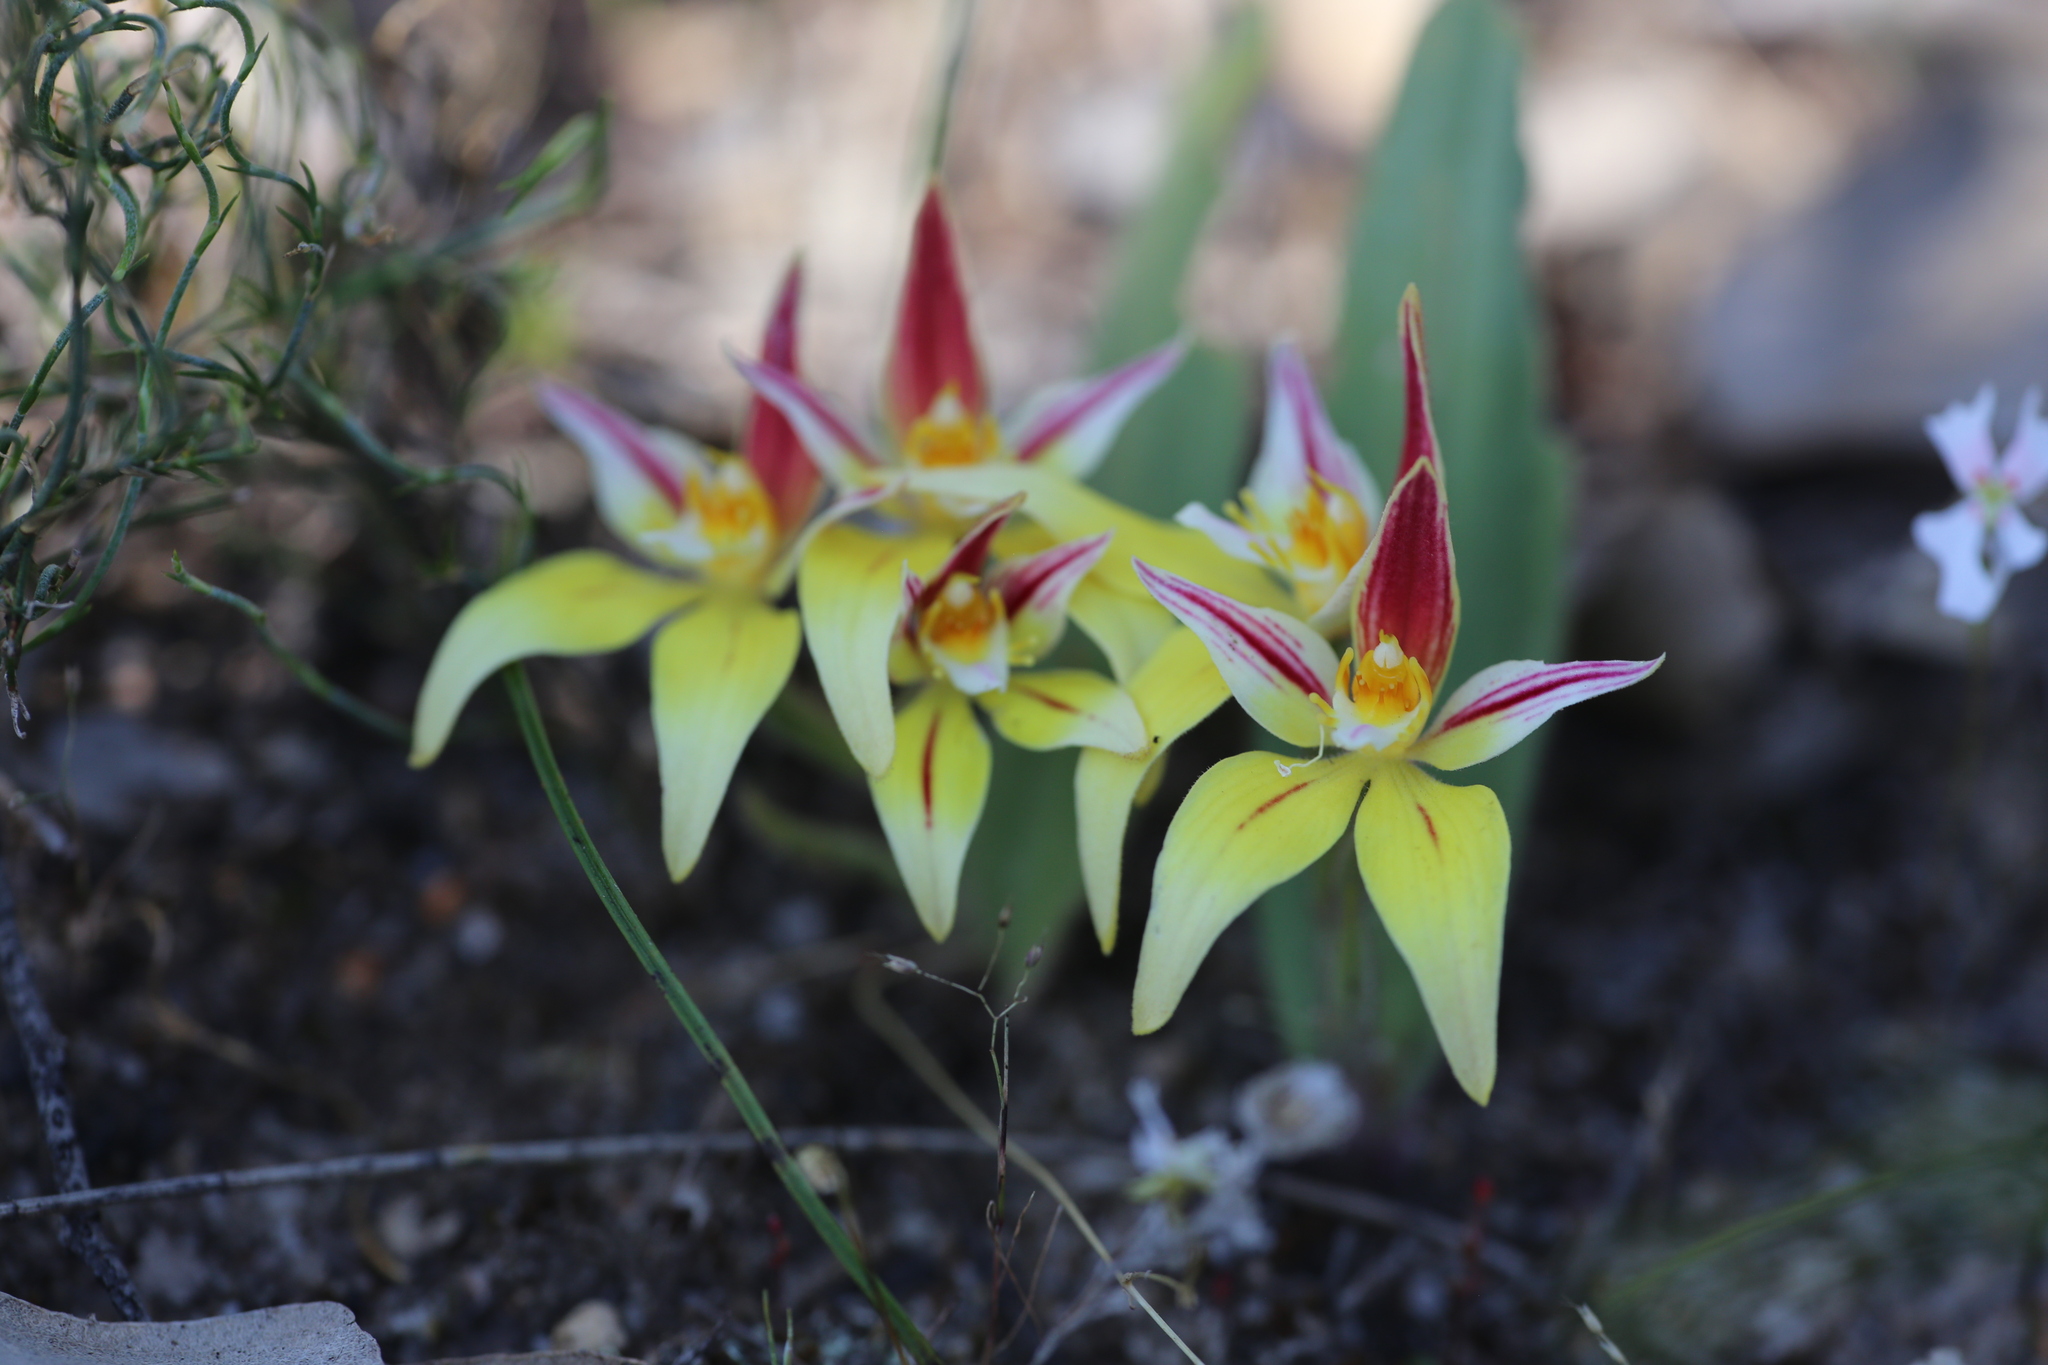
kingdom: Plantae
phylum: Tracheophyta
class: Liliopsida
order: Asparagales
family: Orchidaceae
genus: Caladenia
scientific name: Caladenia flava
